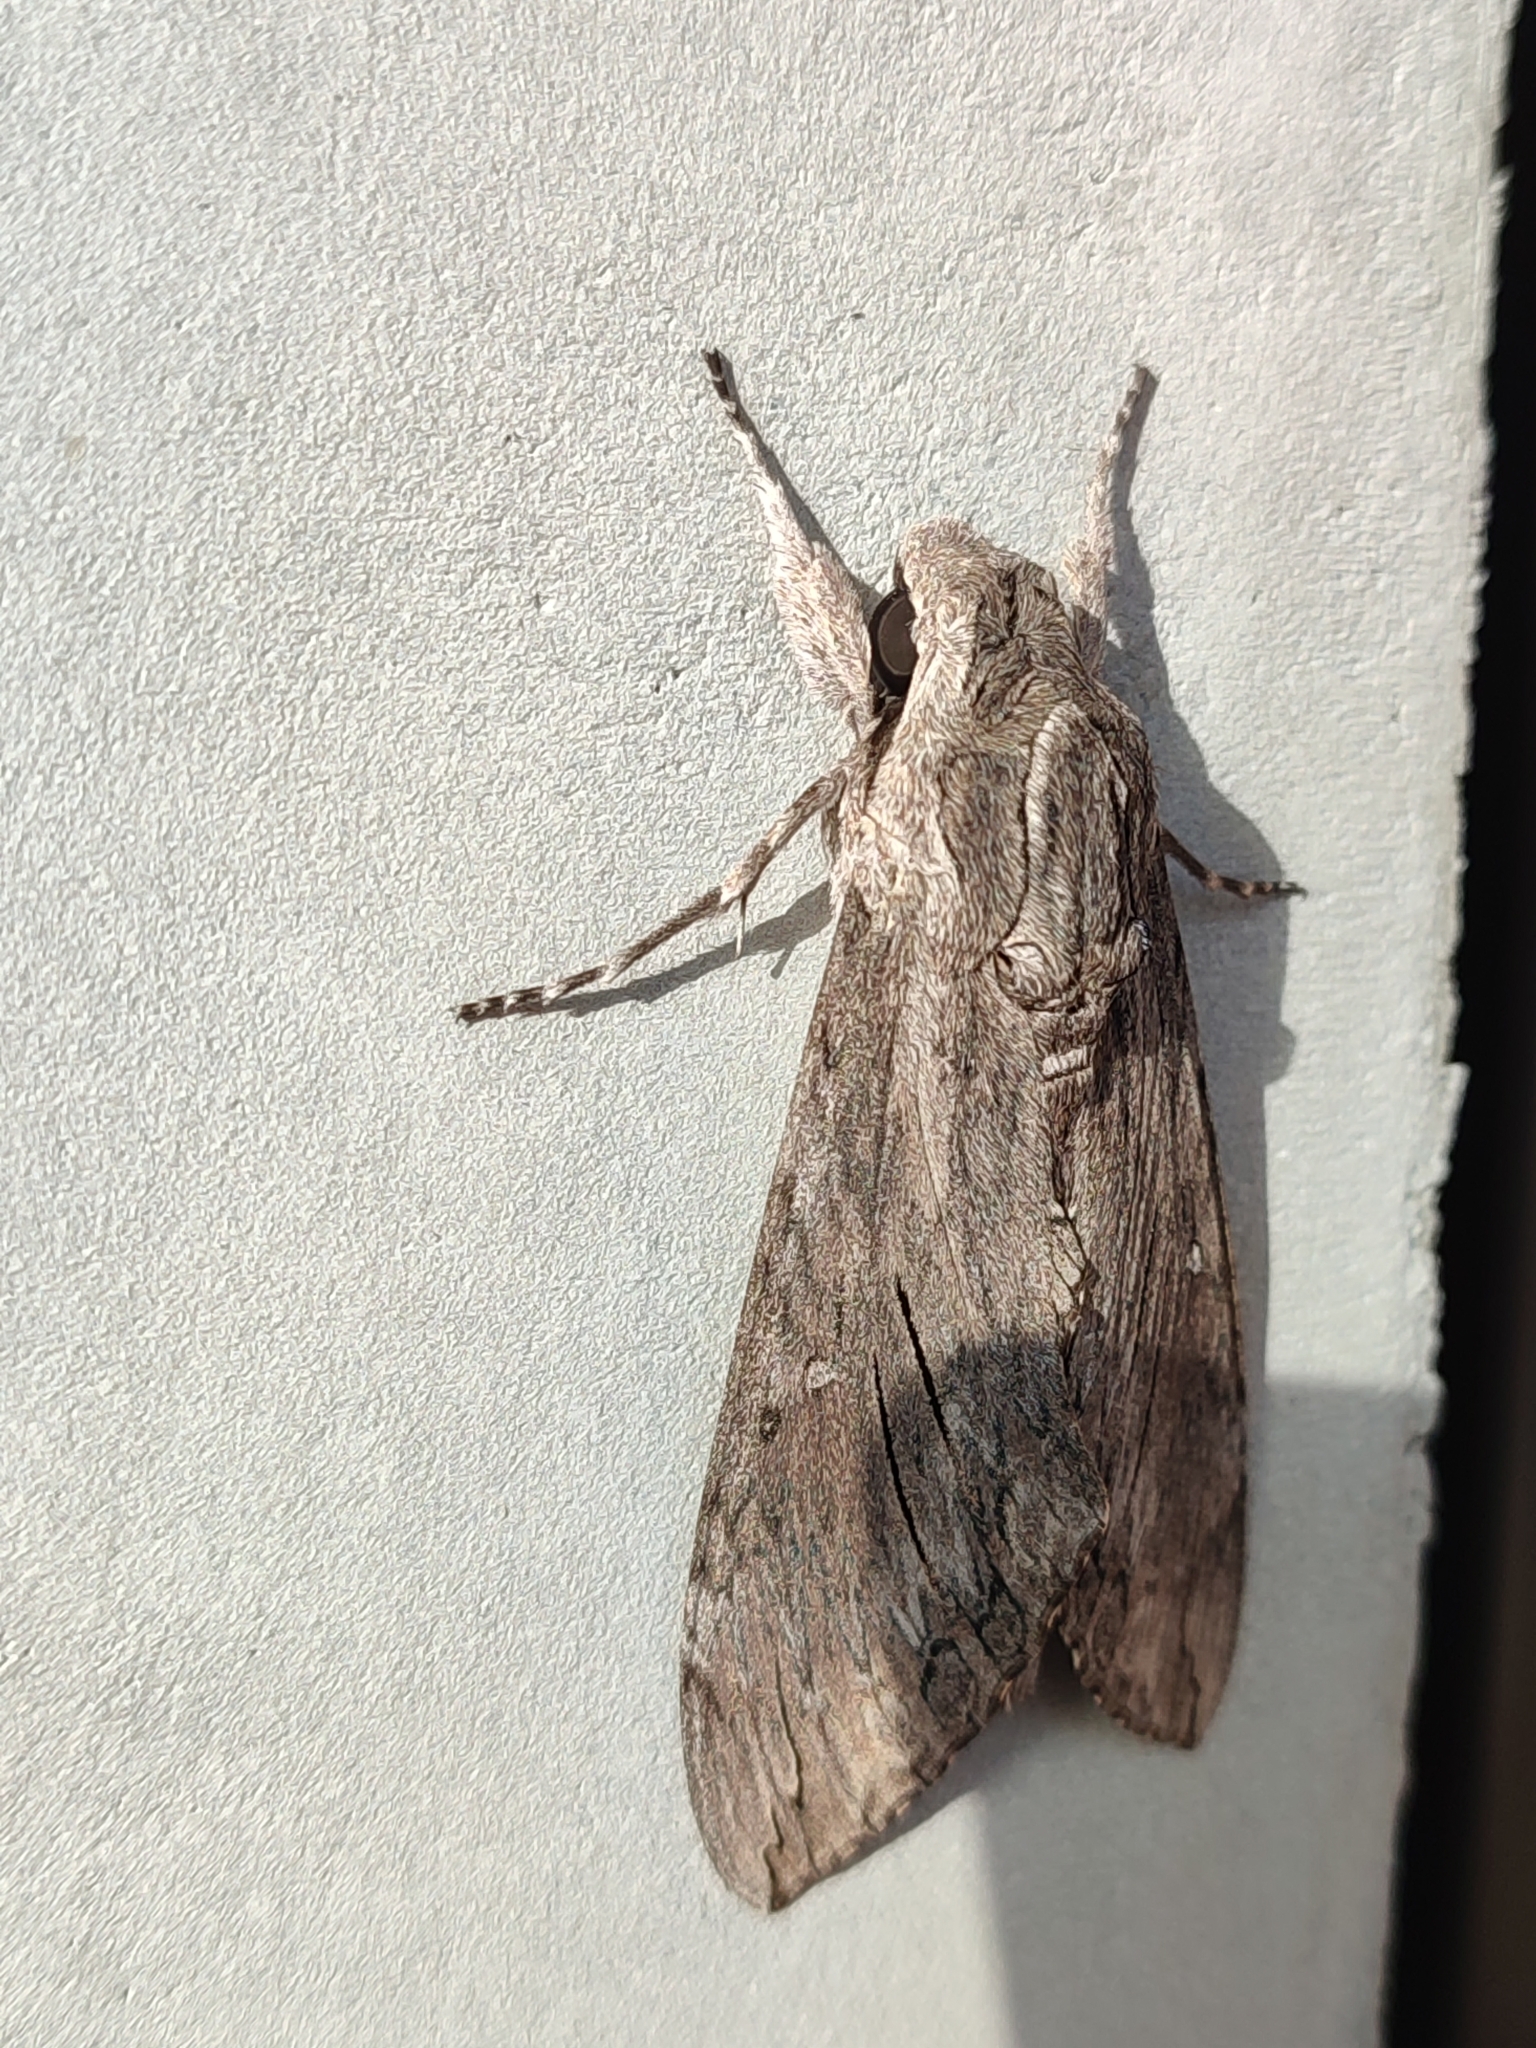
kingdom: Animalia
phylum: Arthropoda
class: Insecta
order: Lepidoptera
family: Sphingidae
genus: Agrius
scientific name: Agrius convolvuli
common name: Convolvulus hawkmoth
